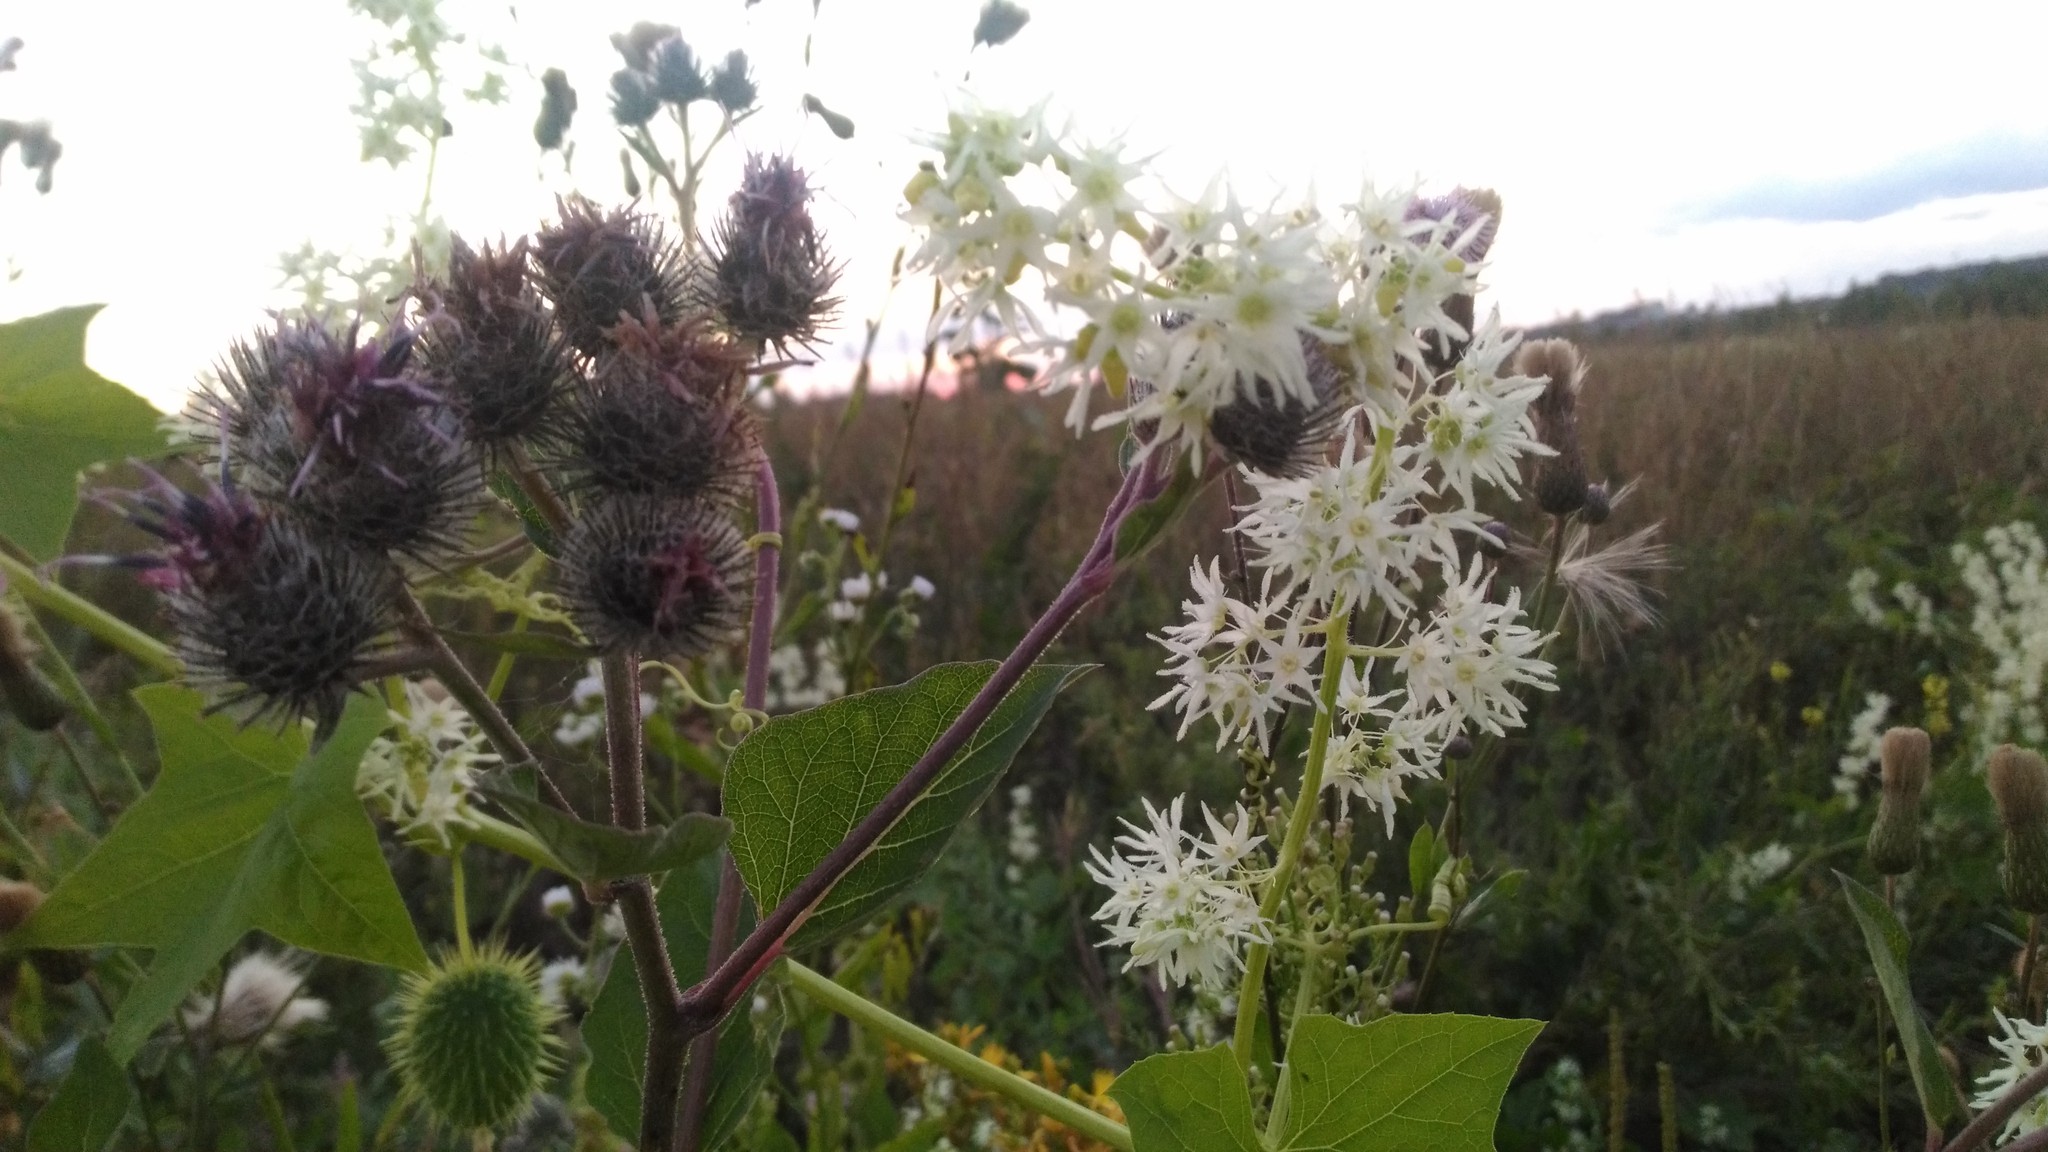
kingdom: Plantae
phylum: Tracheophyta
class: Magnoliopsida
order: Cucurbitales
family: Cucurbitaceae
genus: Echinocystis
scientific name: Echinocystis lobata
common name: Wild cucumber
